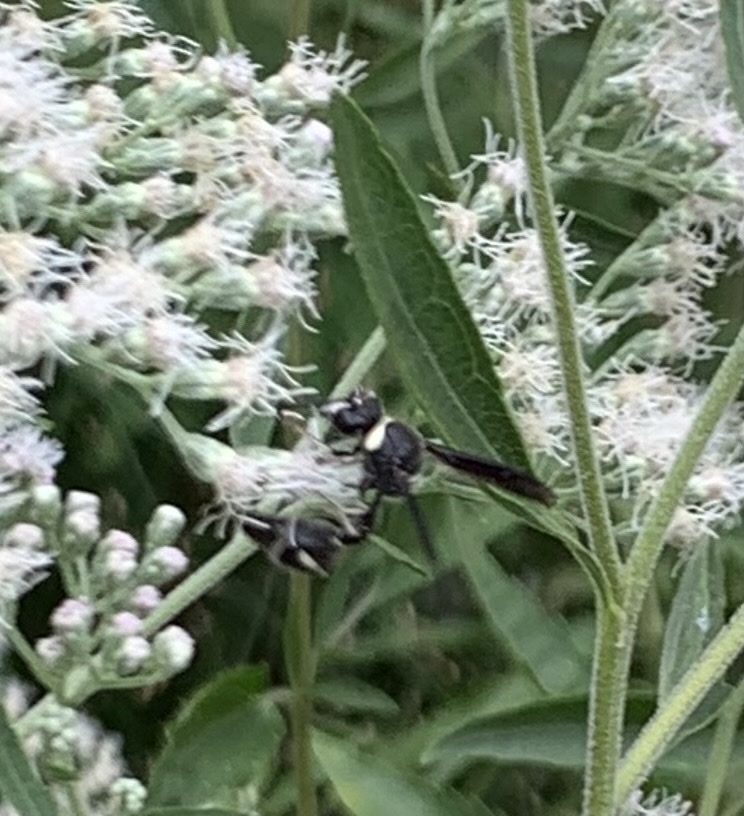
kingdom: Animalia
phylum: Arthropoda
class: Insecta
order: Hymenoptera
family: Vespidae
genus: Eumenes
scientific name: Eumenes fraternus
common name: Fraternal potter wasp
